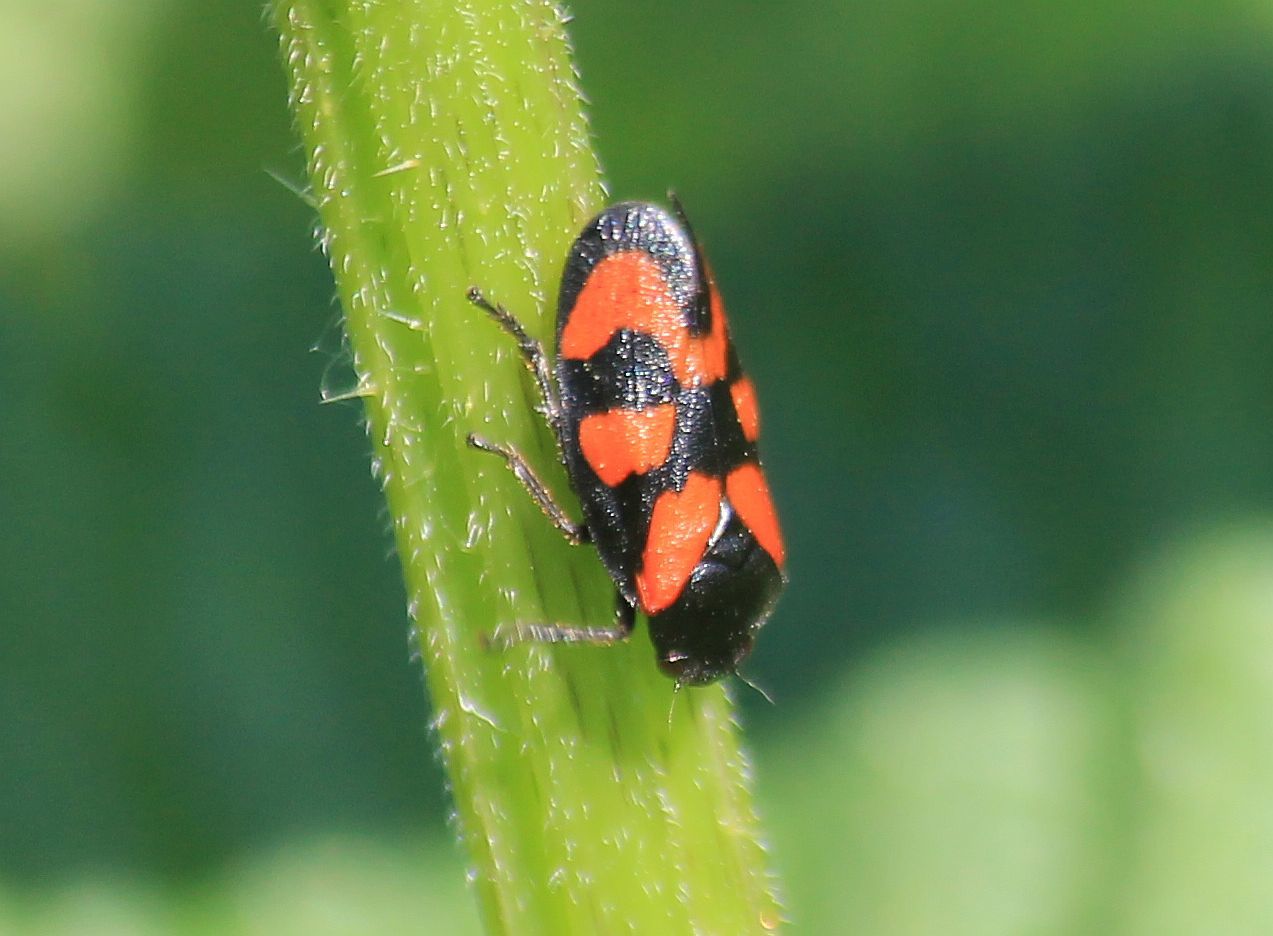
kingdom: Animalia
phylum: Arthropoda
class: Insecta
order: Hemiptera
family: Cercopidae
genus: Cercopis
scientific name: Cercopis vulnerata
